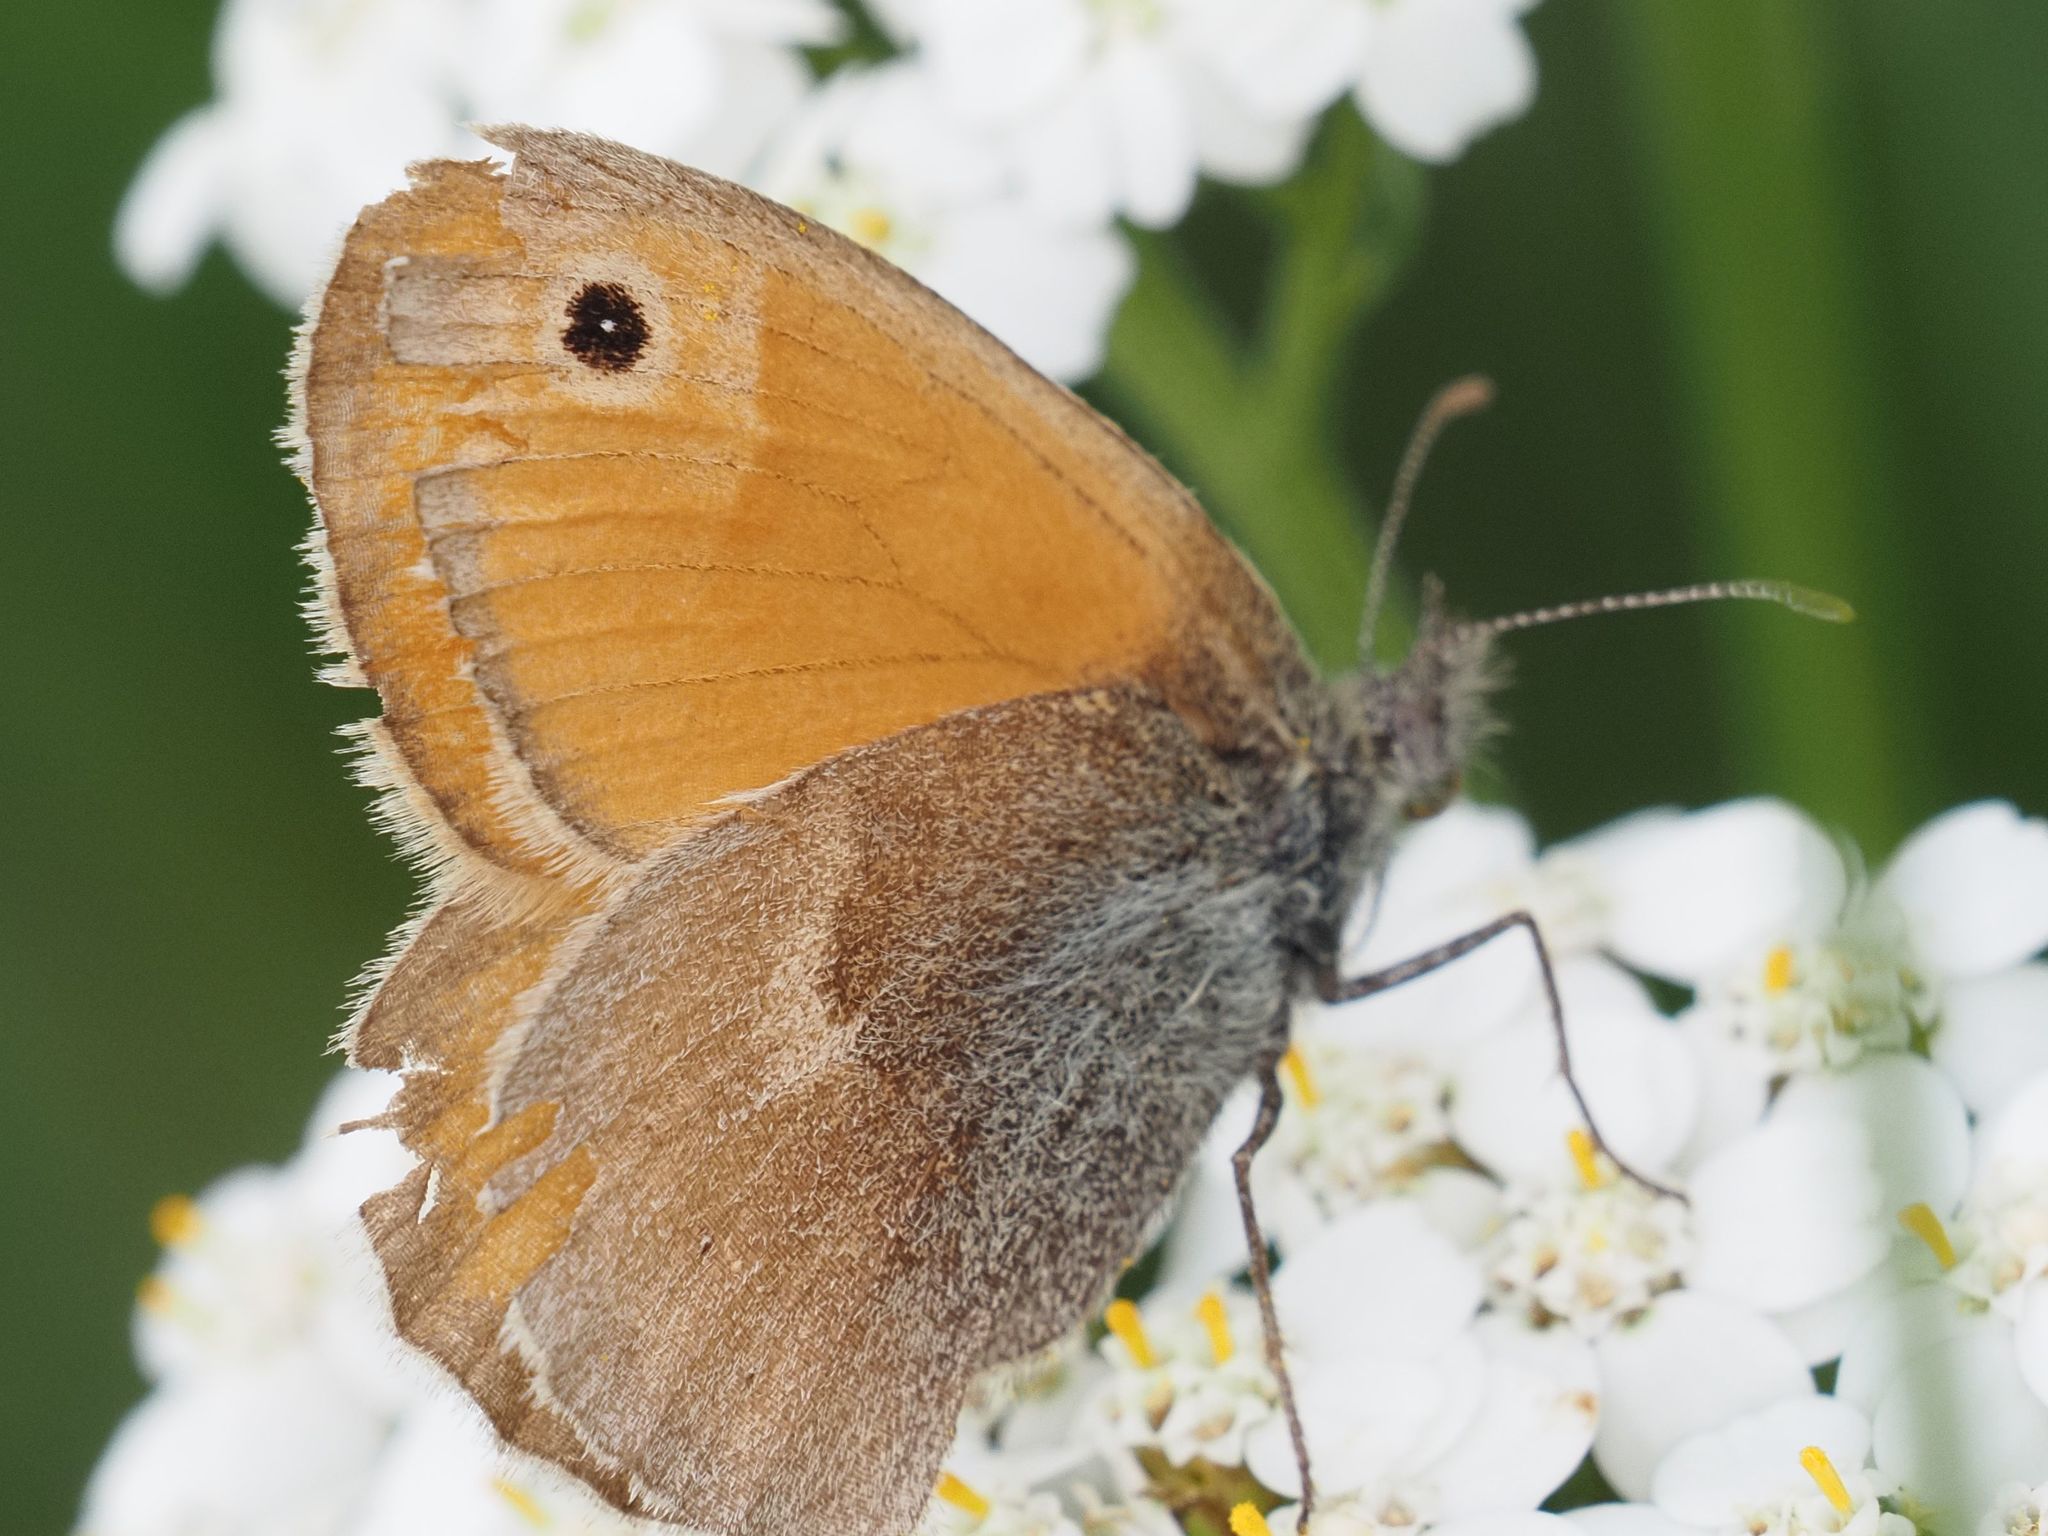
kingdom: Animalia
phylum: Arthropoda
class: Insecta
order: Lepidoptera
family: Nymphalidae
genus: Coenonympha
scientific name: Coenonympha pamphilus
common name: Small heath
